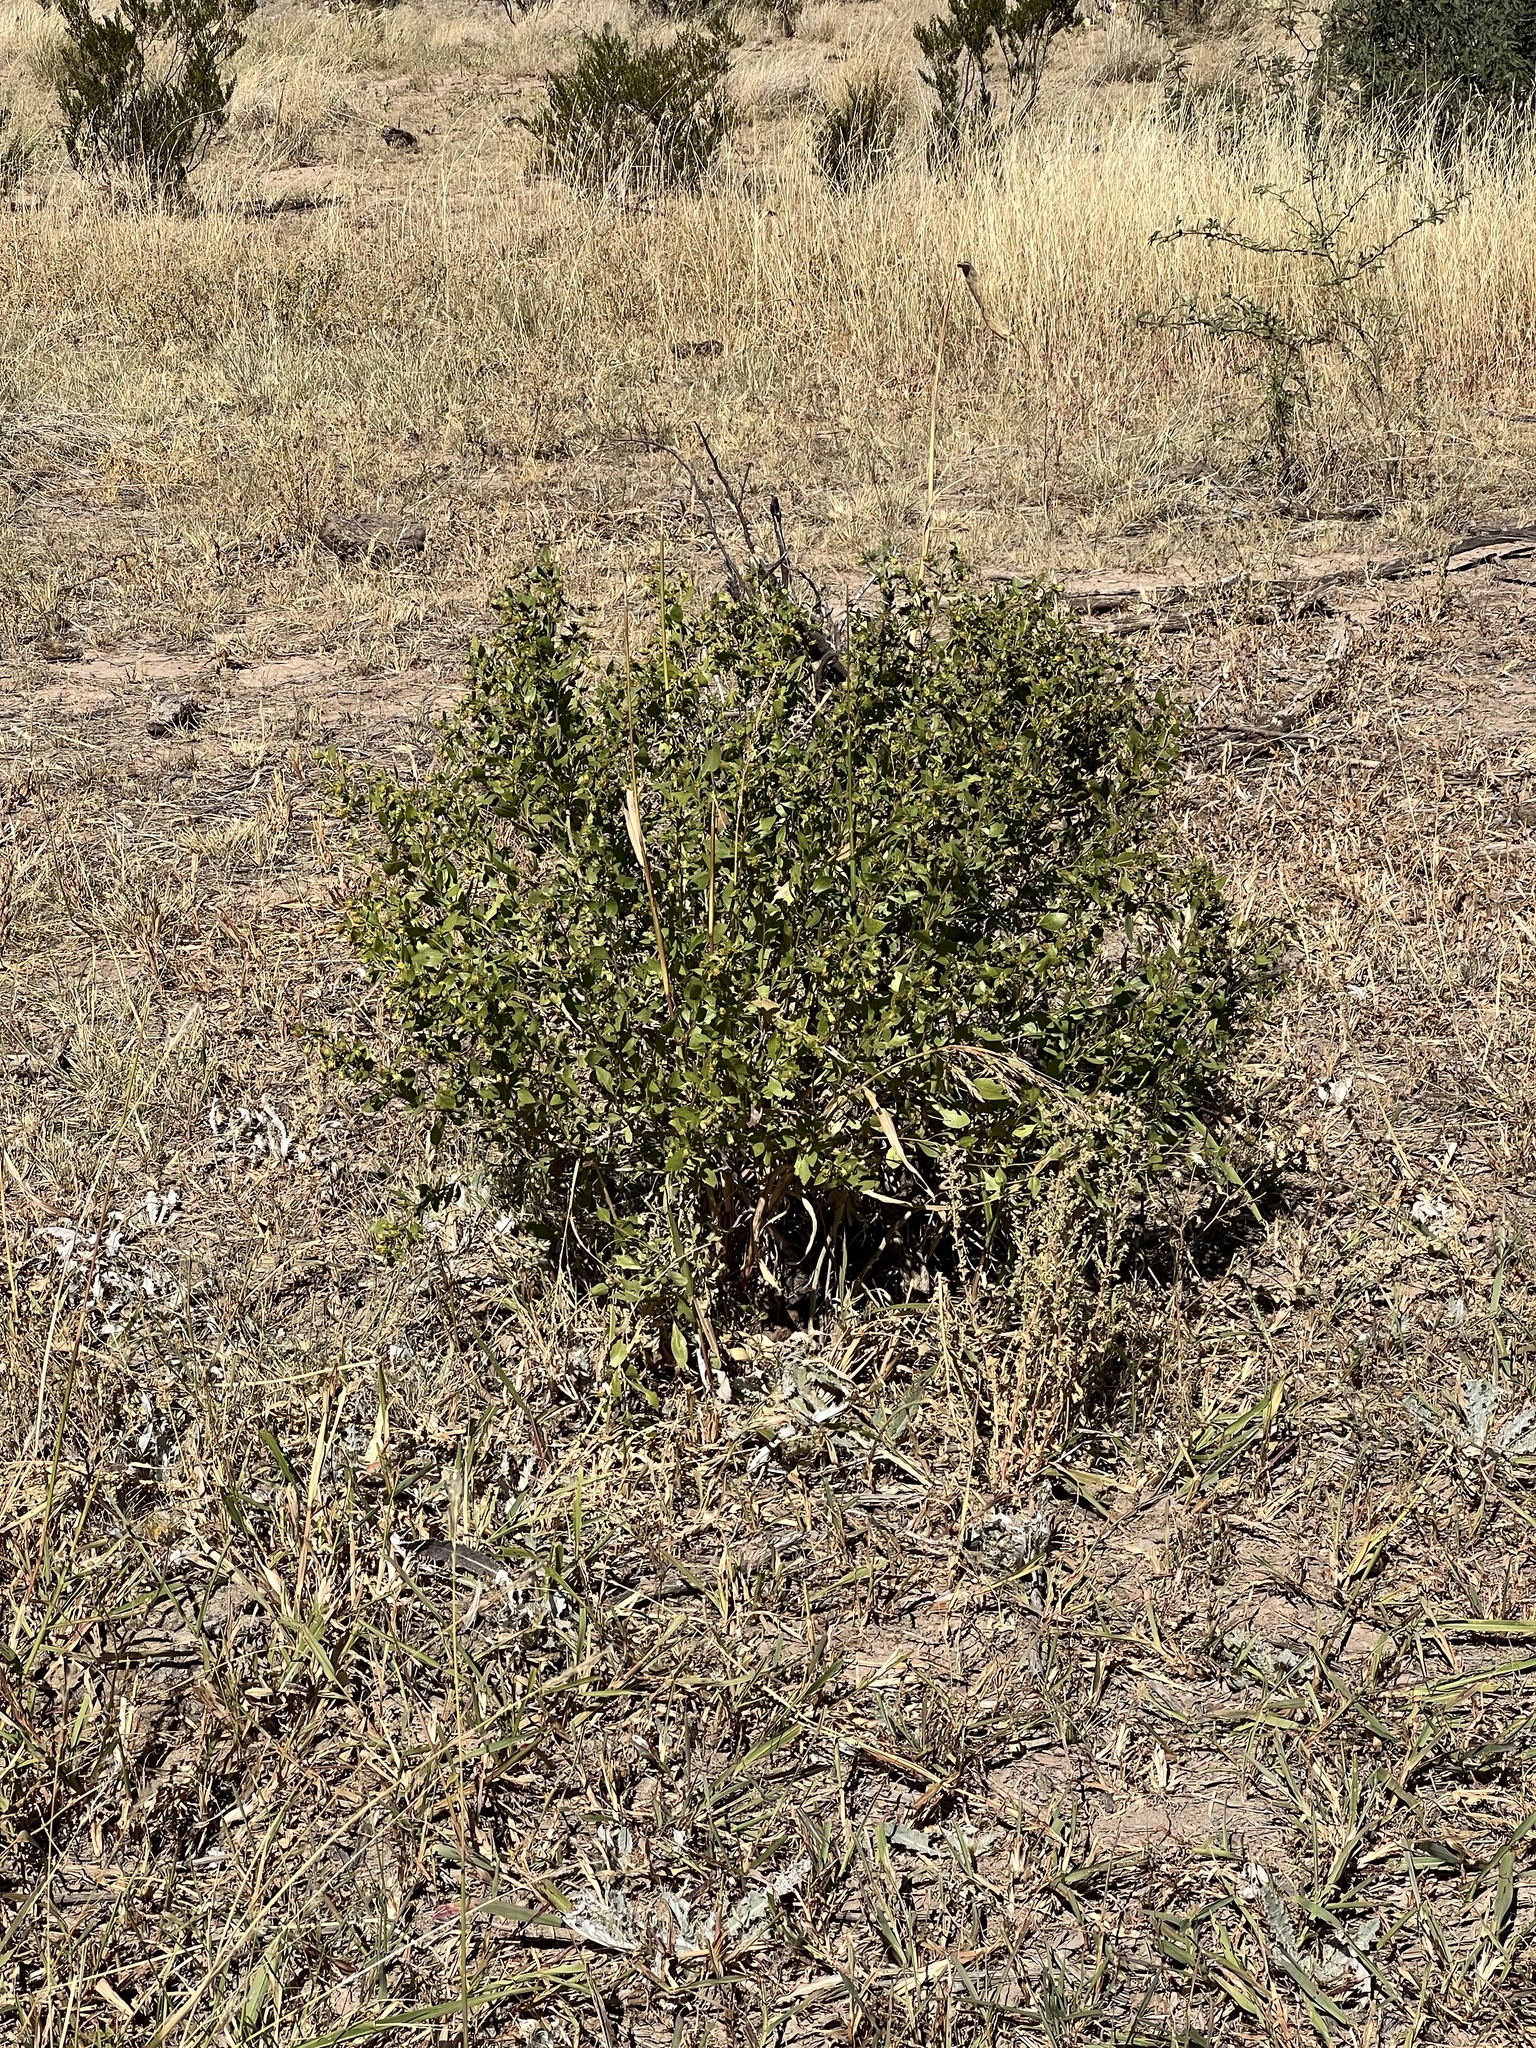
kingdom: Plantae
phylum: Tracheophyta
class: Magnoliopsida
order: Asterales
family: Asteraceae
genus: Flourensia
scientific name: Flourensia cernua
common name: Varnishbush
